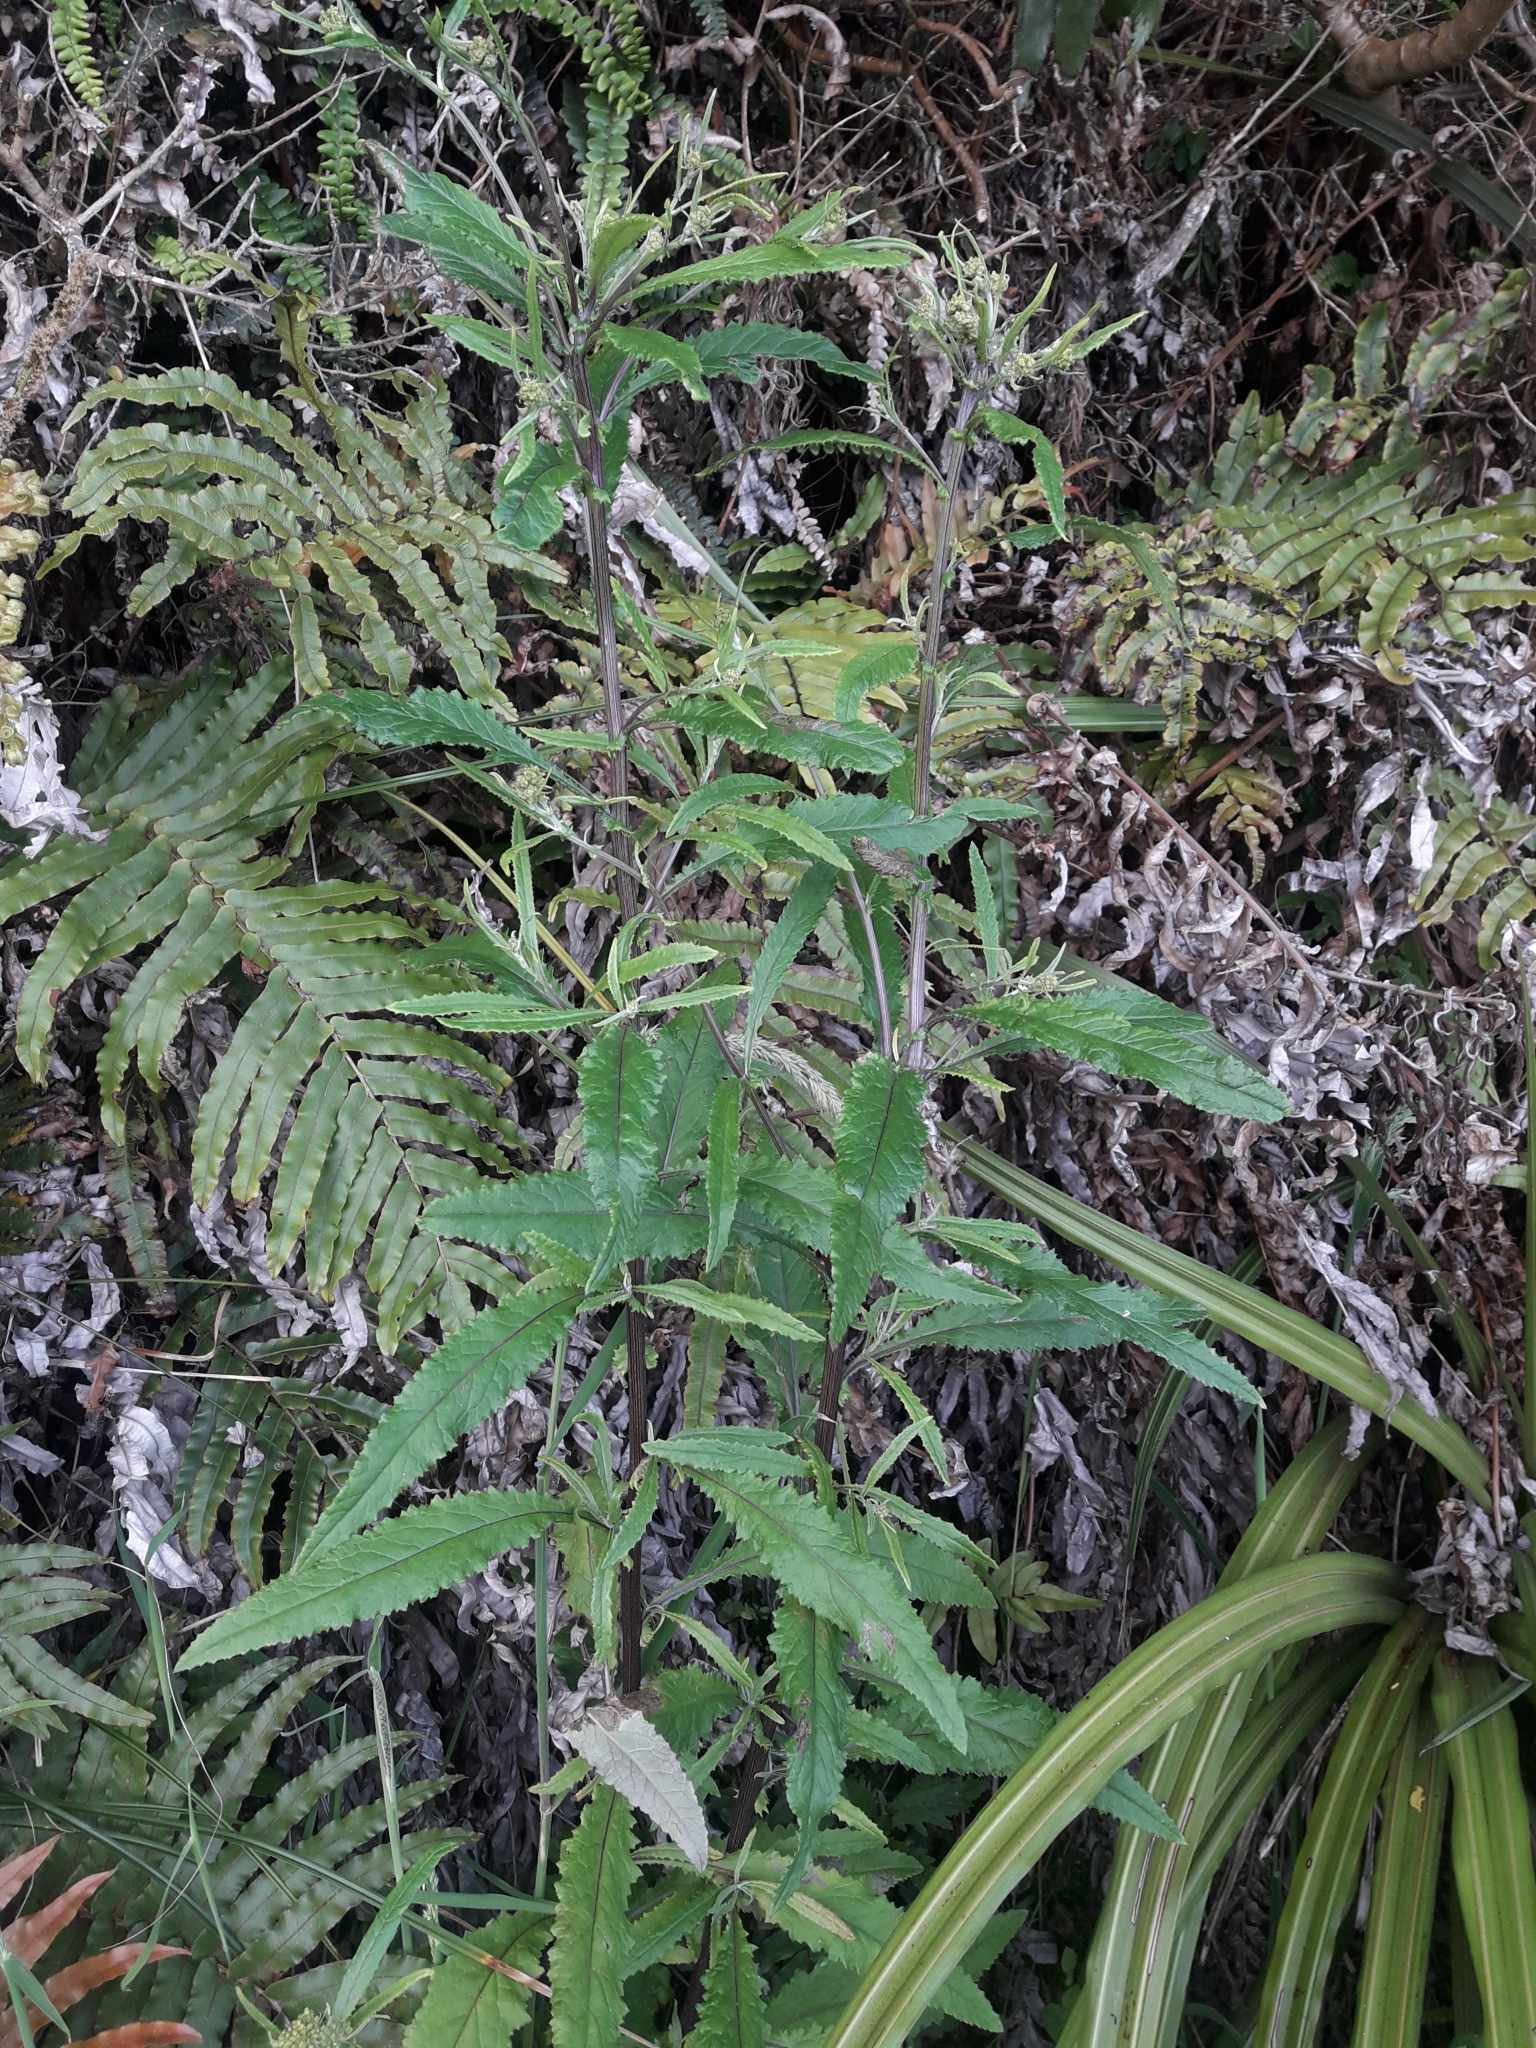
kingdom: Plantae
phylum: Tracheophyta
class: Magnoliopsida
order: Asterales
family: Asteraceae
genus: Senecio
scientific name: Senecio minimus
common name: Toothed fireweed
